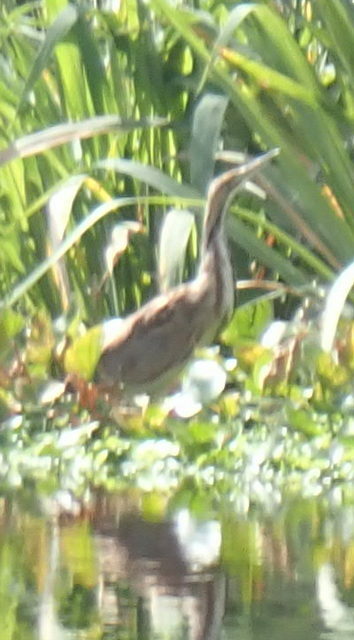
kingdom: Animalia
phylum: Chordata
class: Aves
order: Pelecaniformes
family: Ardeidae
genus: Botaurus
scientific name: Botaurus lentiginosus
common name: American bittern
